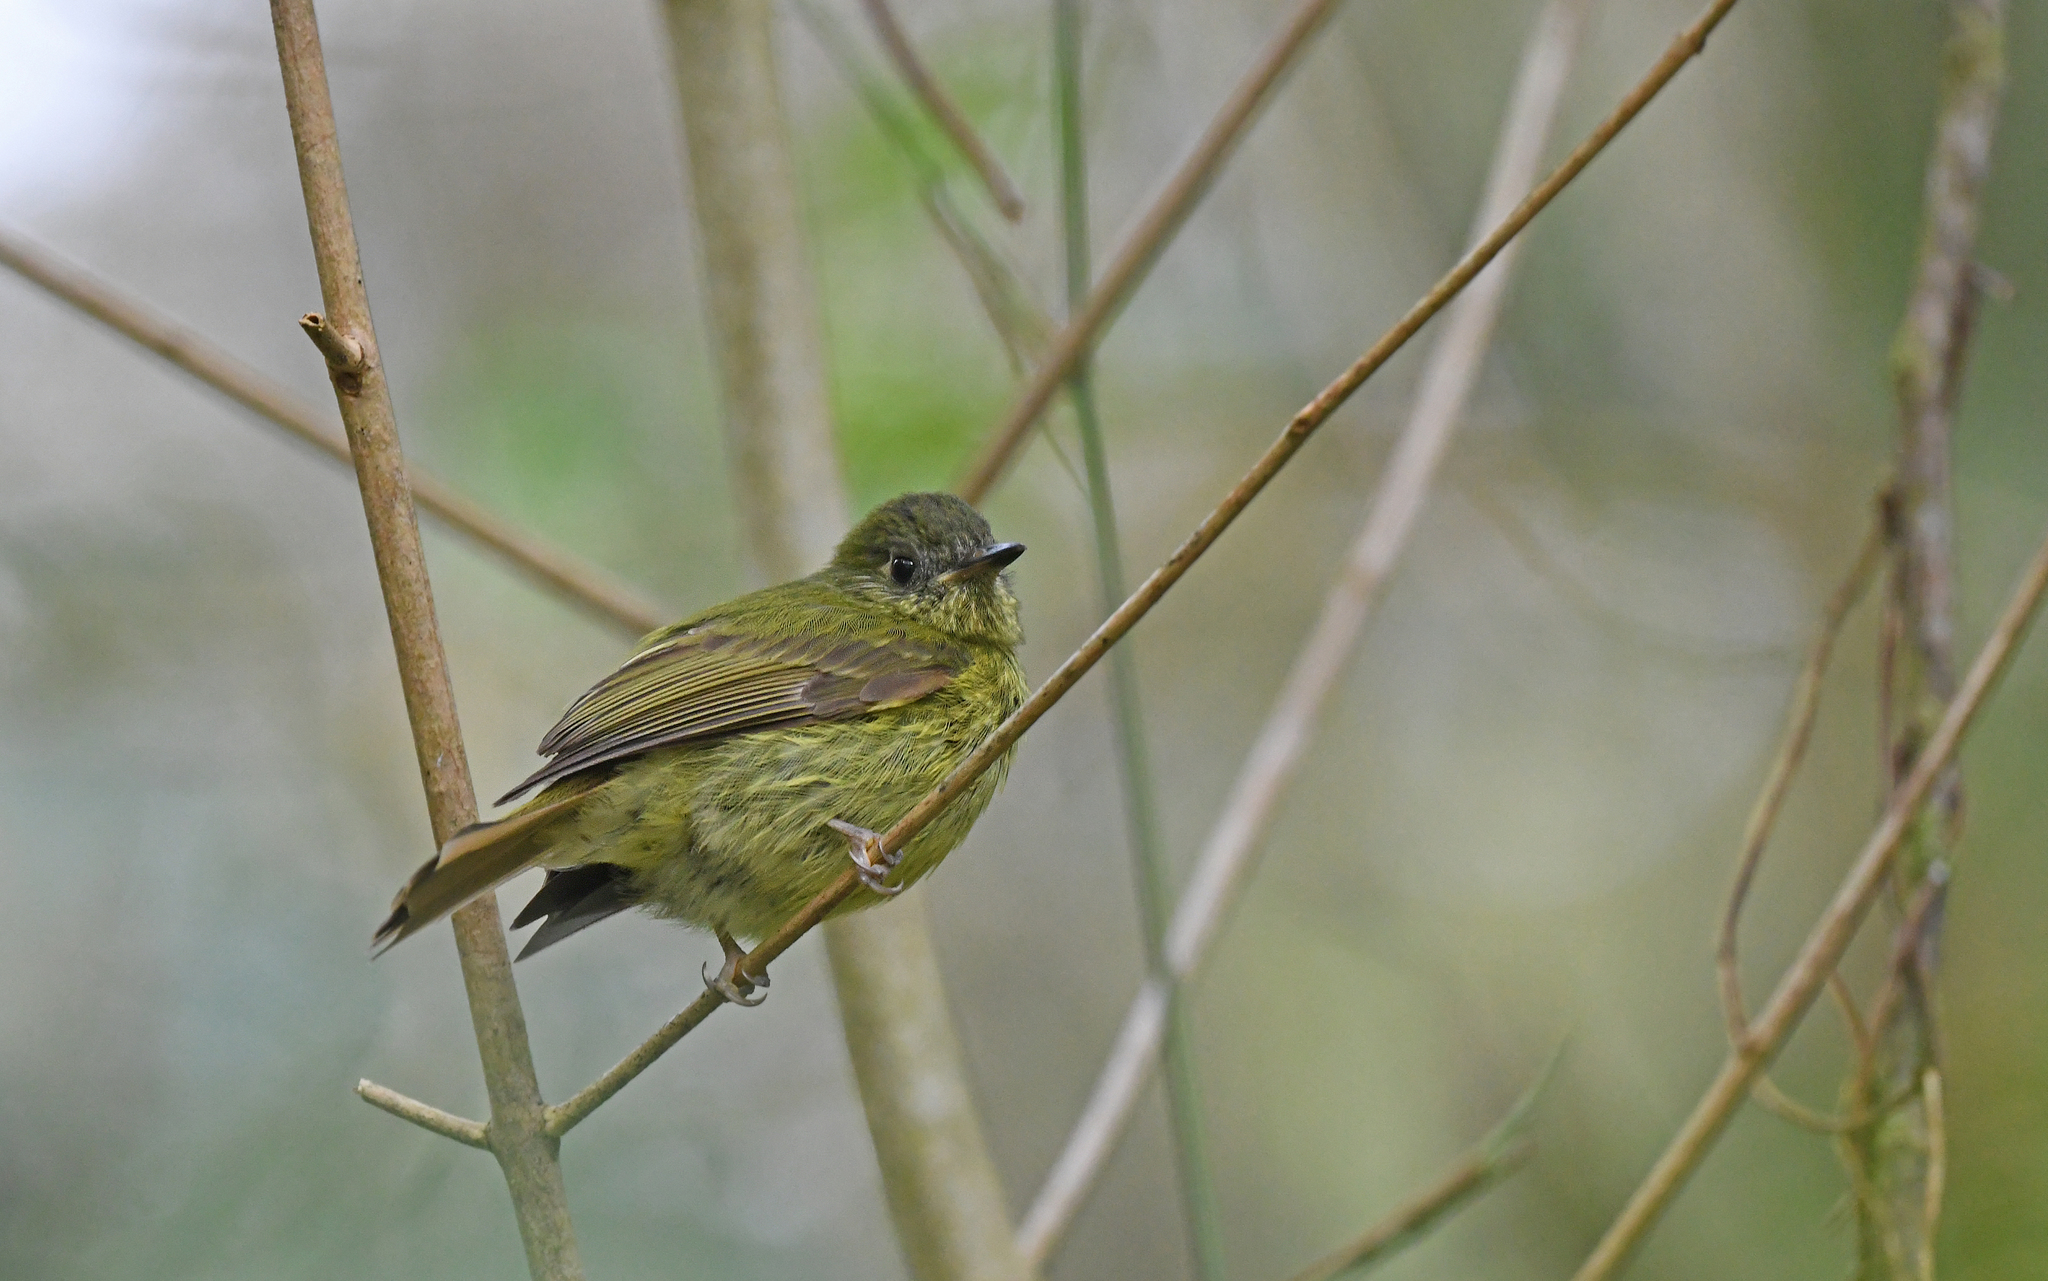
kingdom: Animalia
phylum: Chordata
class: Aves
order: Passeriformes
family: Tyrannidae
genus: Mionectes
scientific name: Mionectes galbinus
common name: Olive-striped flycatcher
